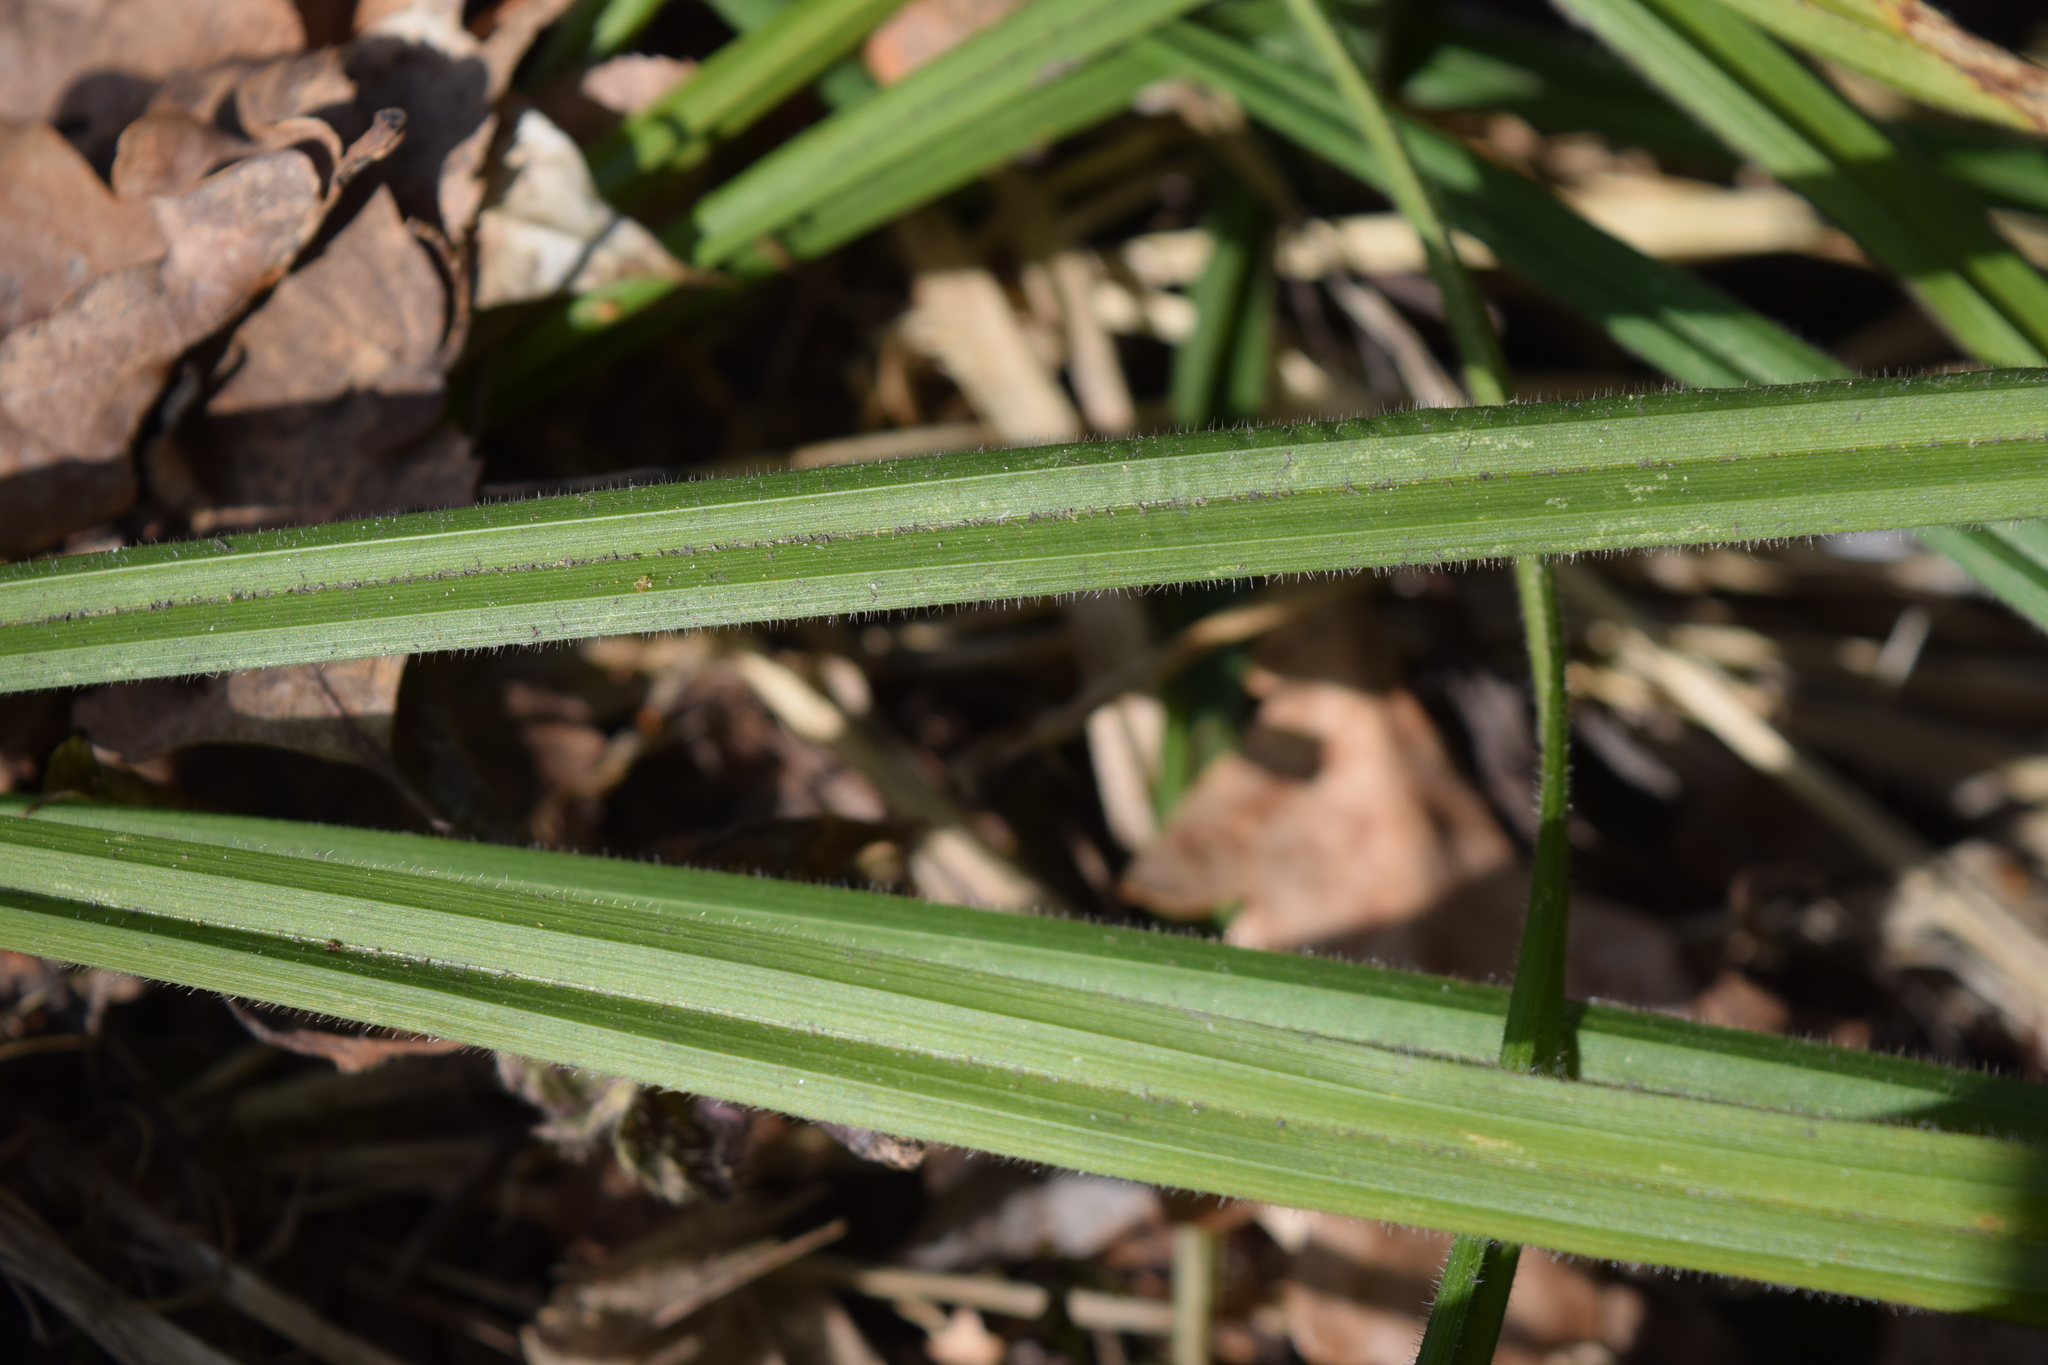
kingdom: Plantae
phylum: Tracheophyta
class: Liliopsida
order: Poales
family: Cyperaceae
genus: Carex
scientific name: Carex pilosa
